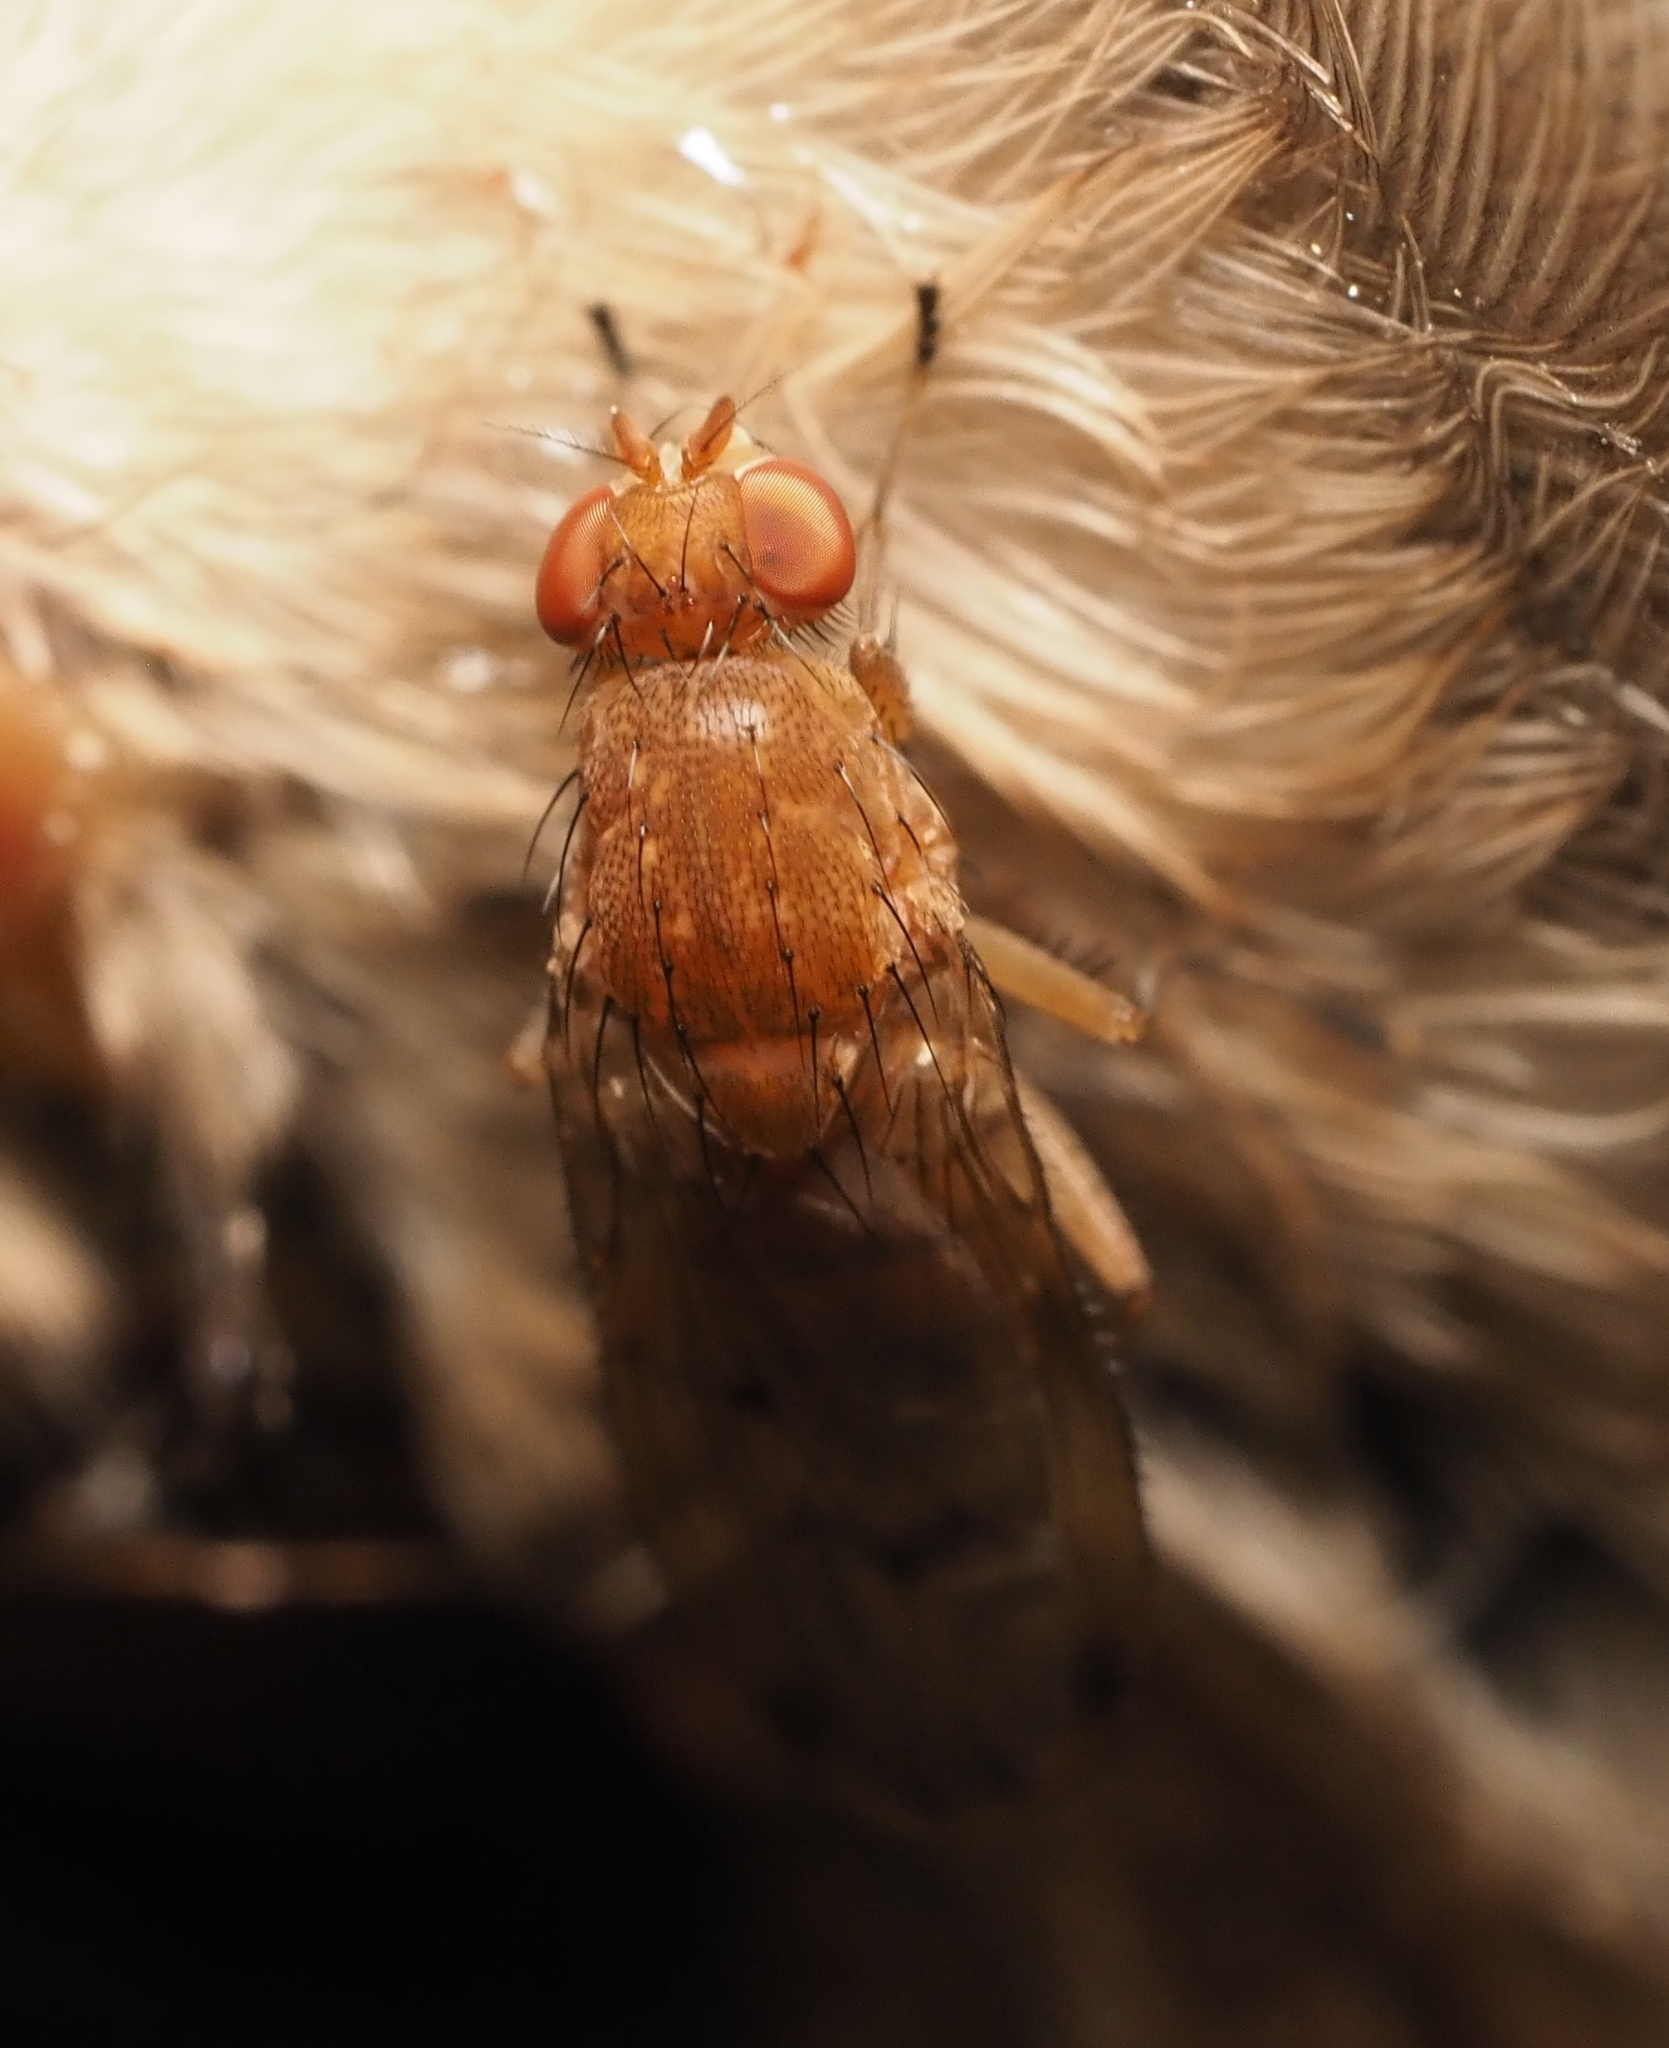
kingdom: Animalia
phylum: Arthropoda
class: Insecta
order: Diptera
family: Heleomyzidae
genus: Suillia
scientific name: Suillia quinquepunctata
